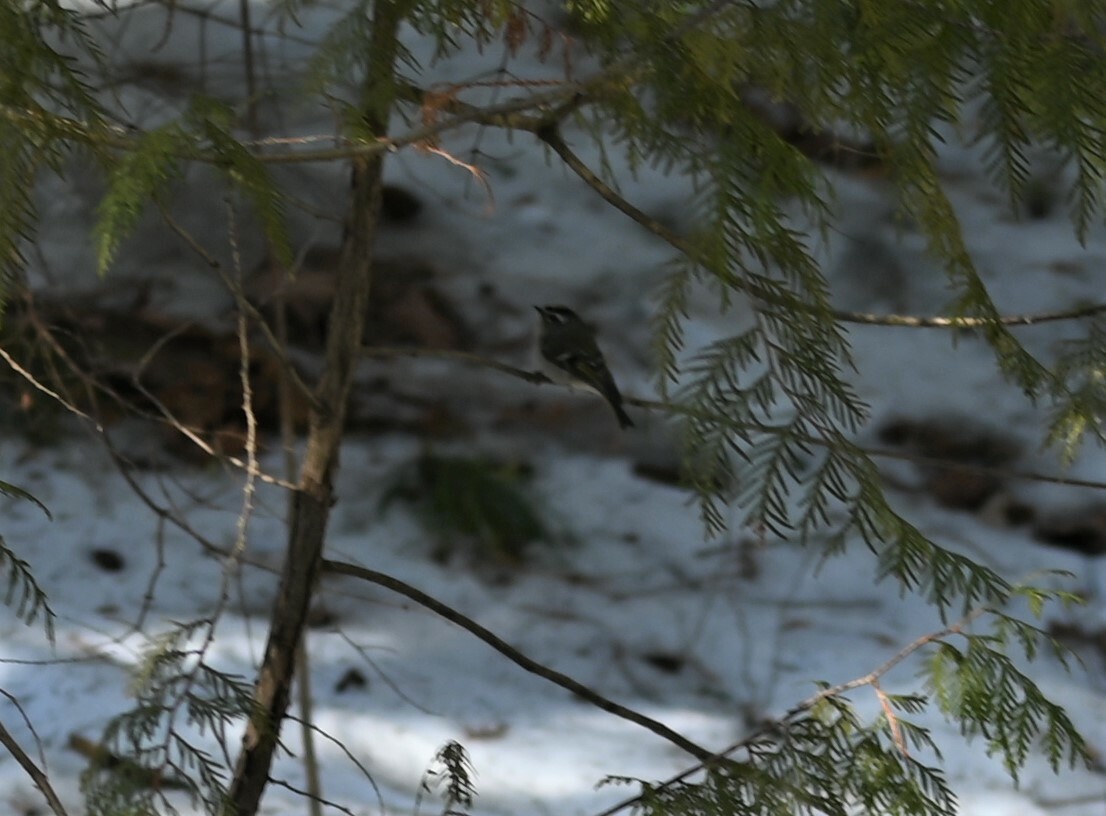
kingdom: Animalia
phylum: Chordata
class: Aves
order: Passeriformes
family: Regulidae
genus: Regulus
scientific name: Regulus satrapa
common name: Golden-crowned kinglet
